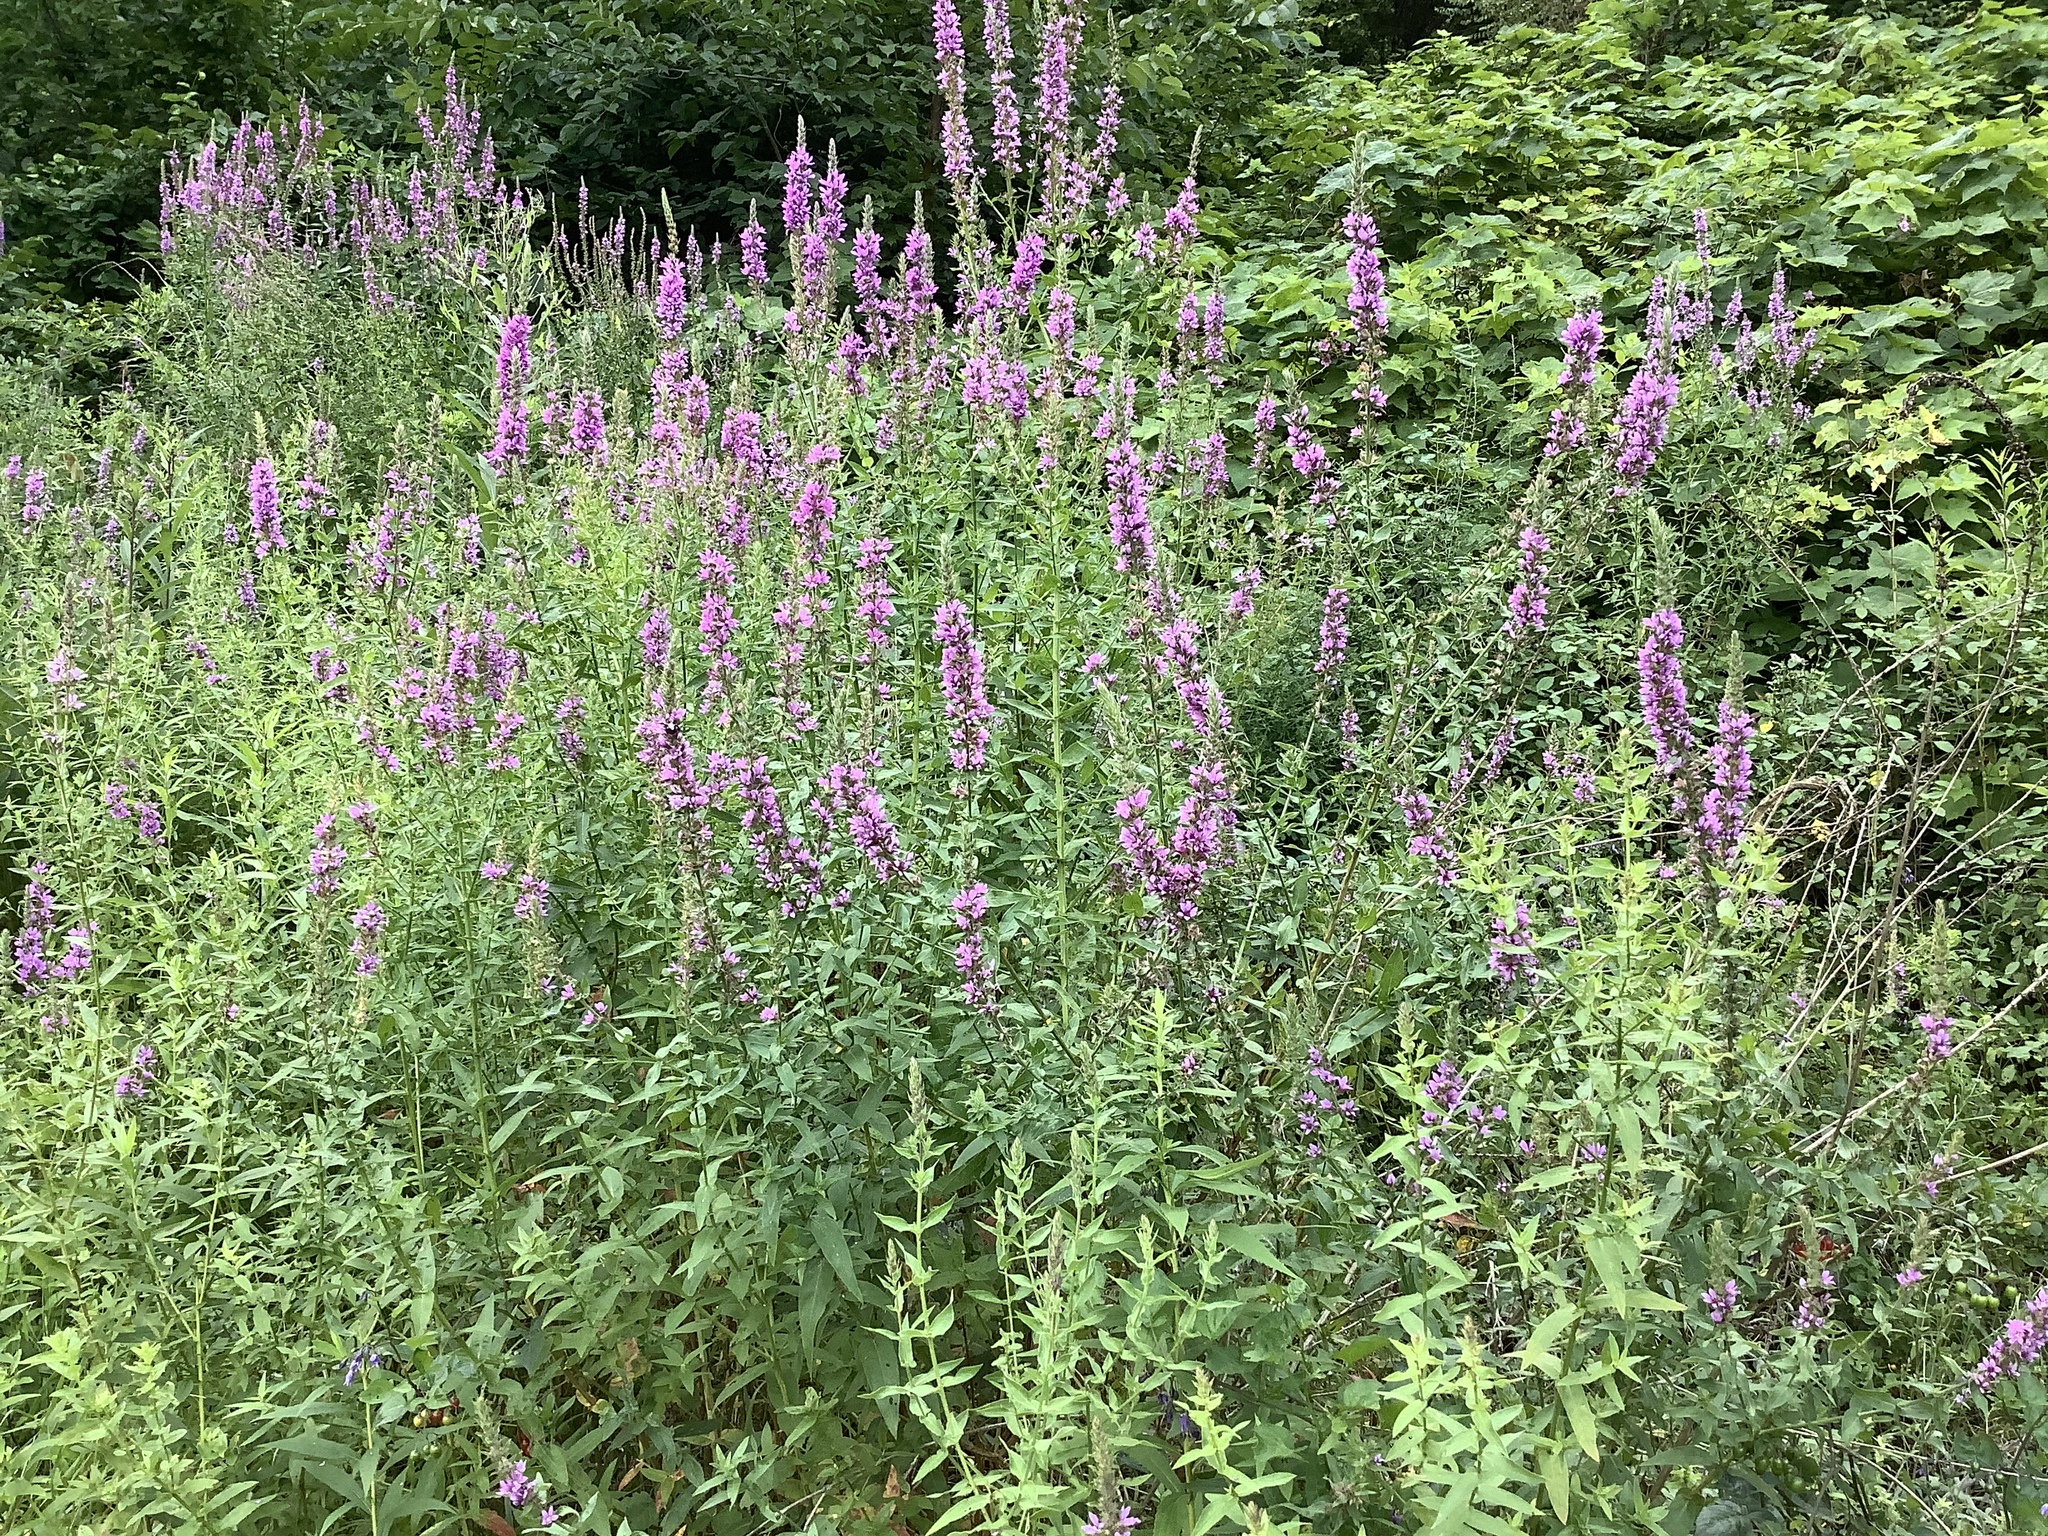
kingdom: Plantae
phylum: Tracheophyta
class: Magnoliopsida
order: Myrtales
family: Lythraceae
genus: Lythrum
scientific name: Lythrum salicaria
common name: Purple loosestrife
